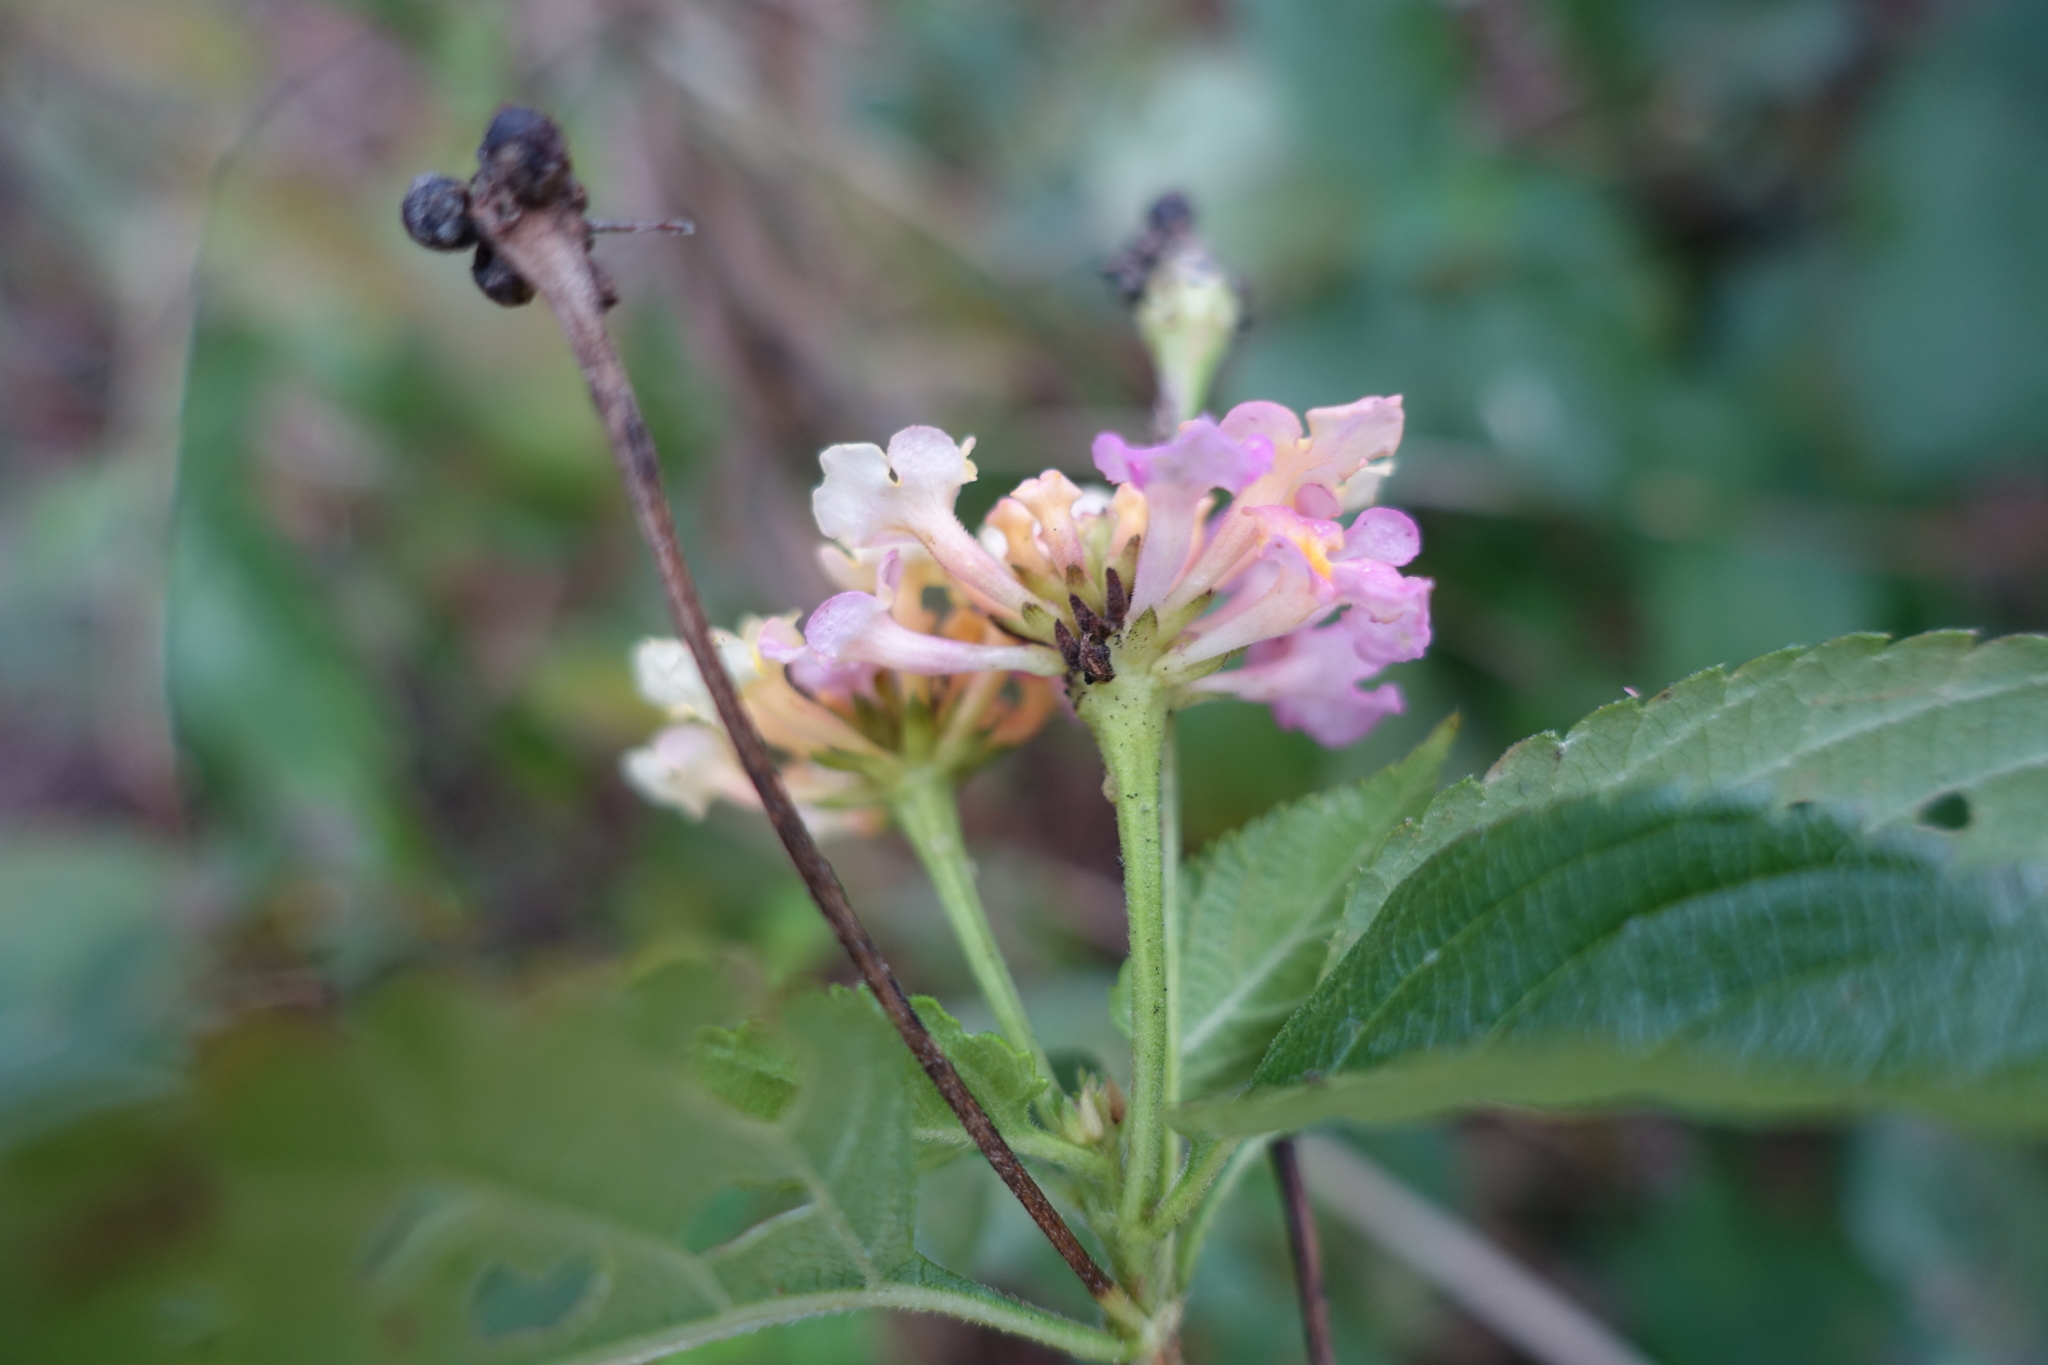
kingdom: Plantae
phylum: Tracheophyta
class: Magnoliopsida
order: Lamiales
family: Verbenaceae
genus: Lantana
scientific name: Lantana strigocamara
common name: Lantana
